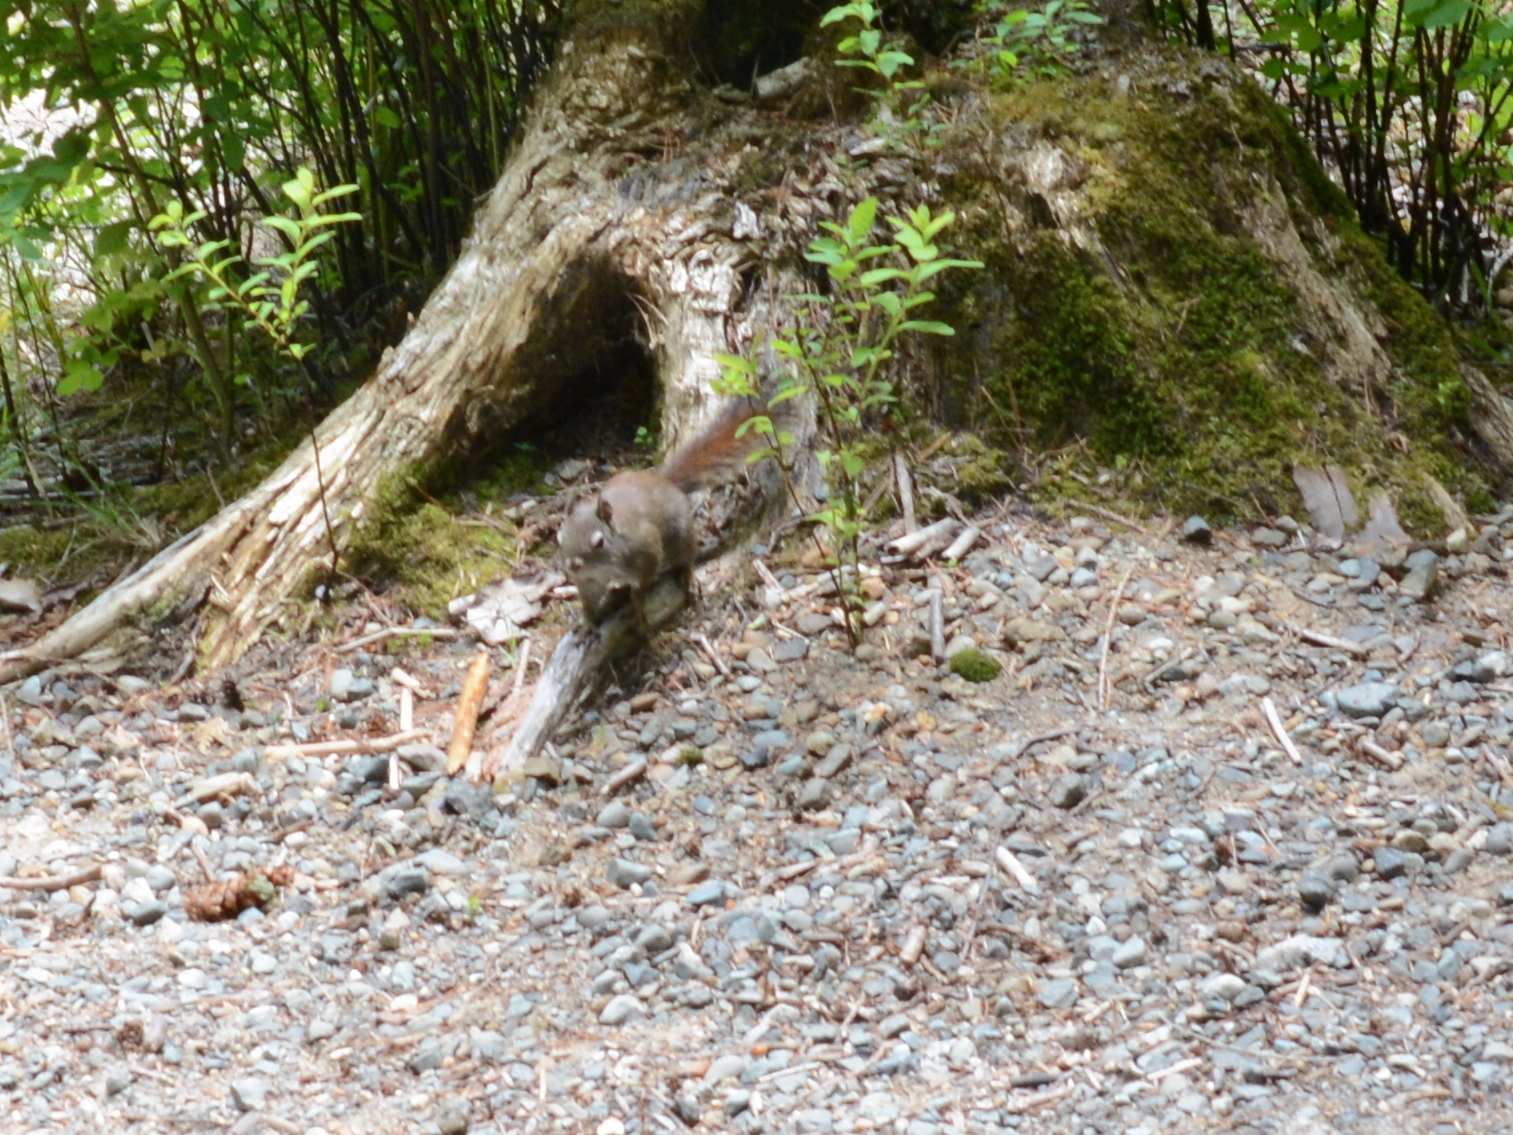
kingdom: Animalia
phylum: Chordata
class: Mammalia
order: Rodentia
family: Sciuridae
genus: Tamiasciurus
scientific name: Tamiasciurus hudsonicus
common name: Red squirrel
